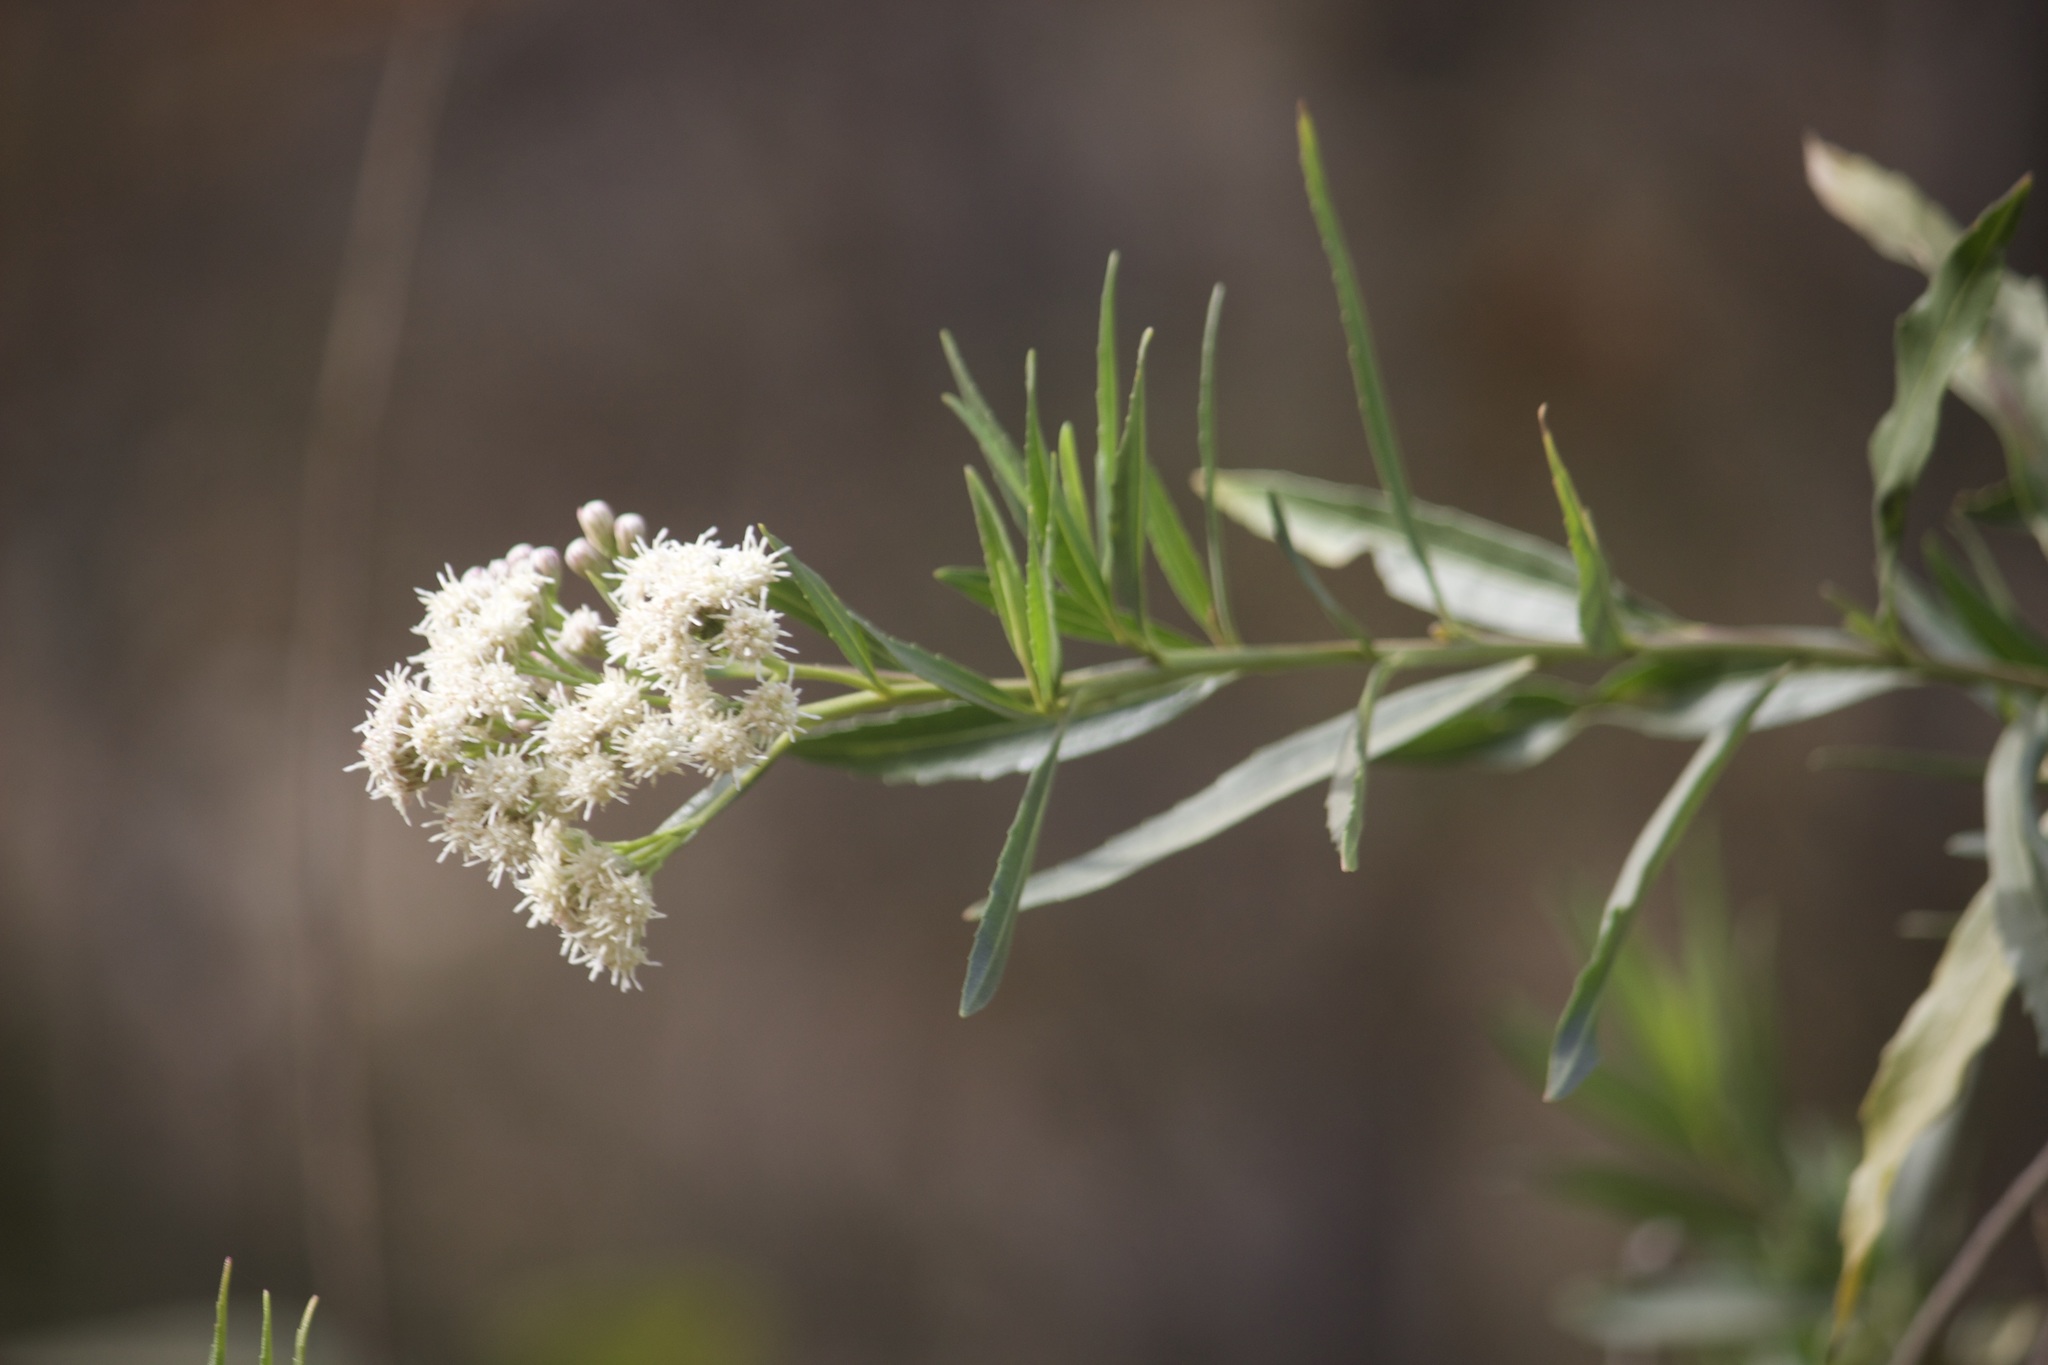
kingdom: Plantae
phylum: Tracheophyta
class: Magnoliopsida
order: Asterales
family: Asteraceae
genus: Baccharis
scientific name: Baccharis salicifolia
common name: Sticky baccharis
